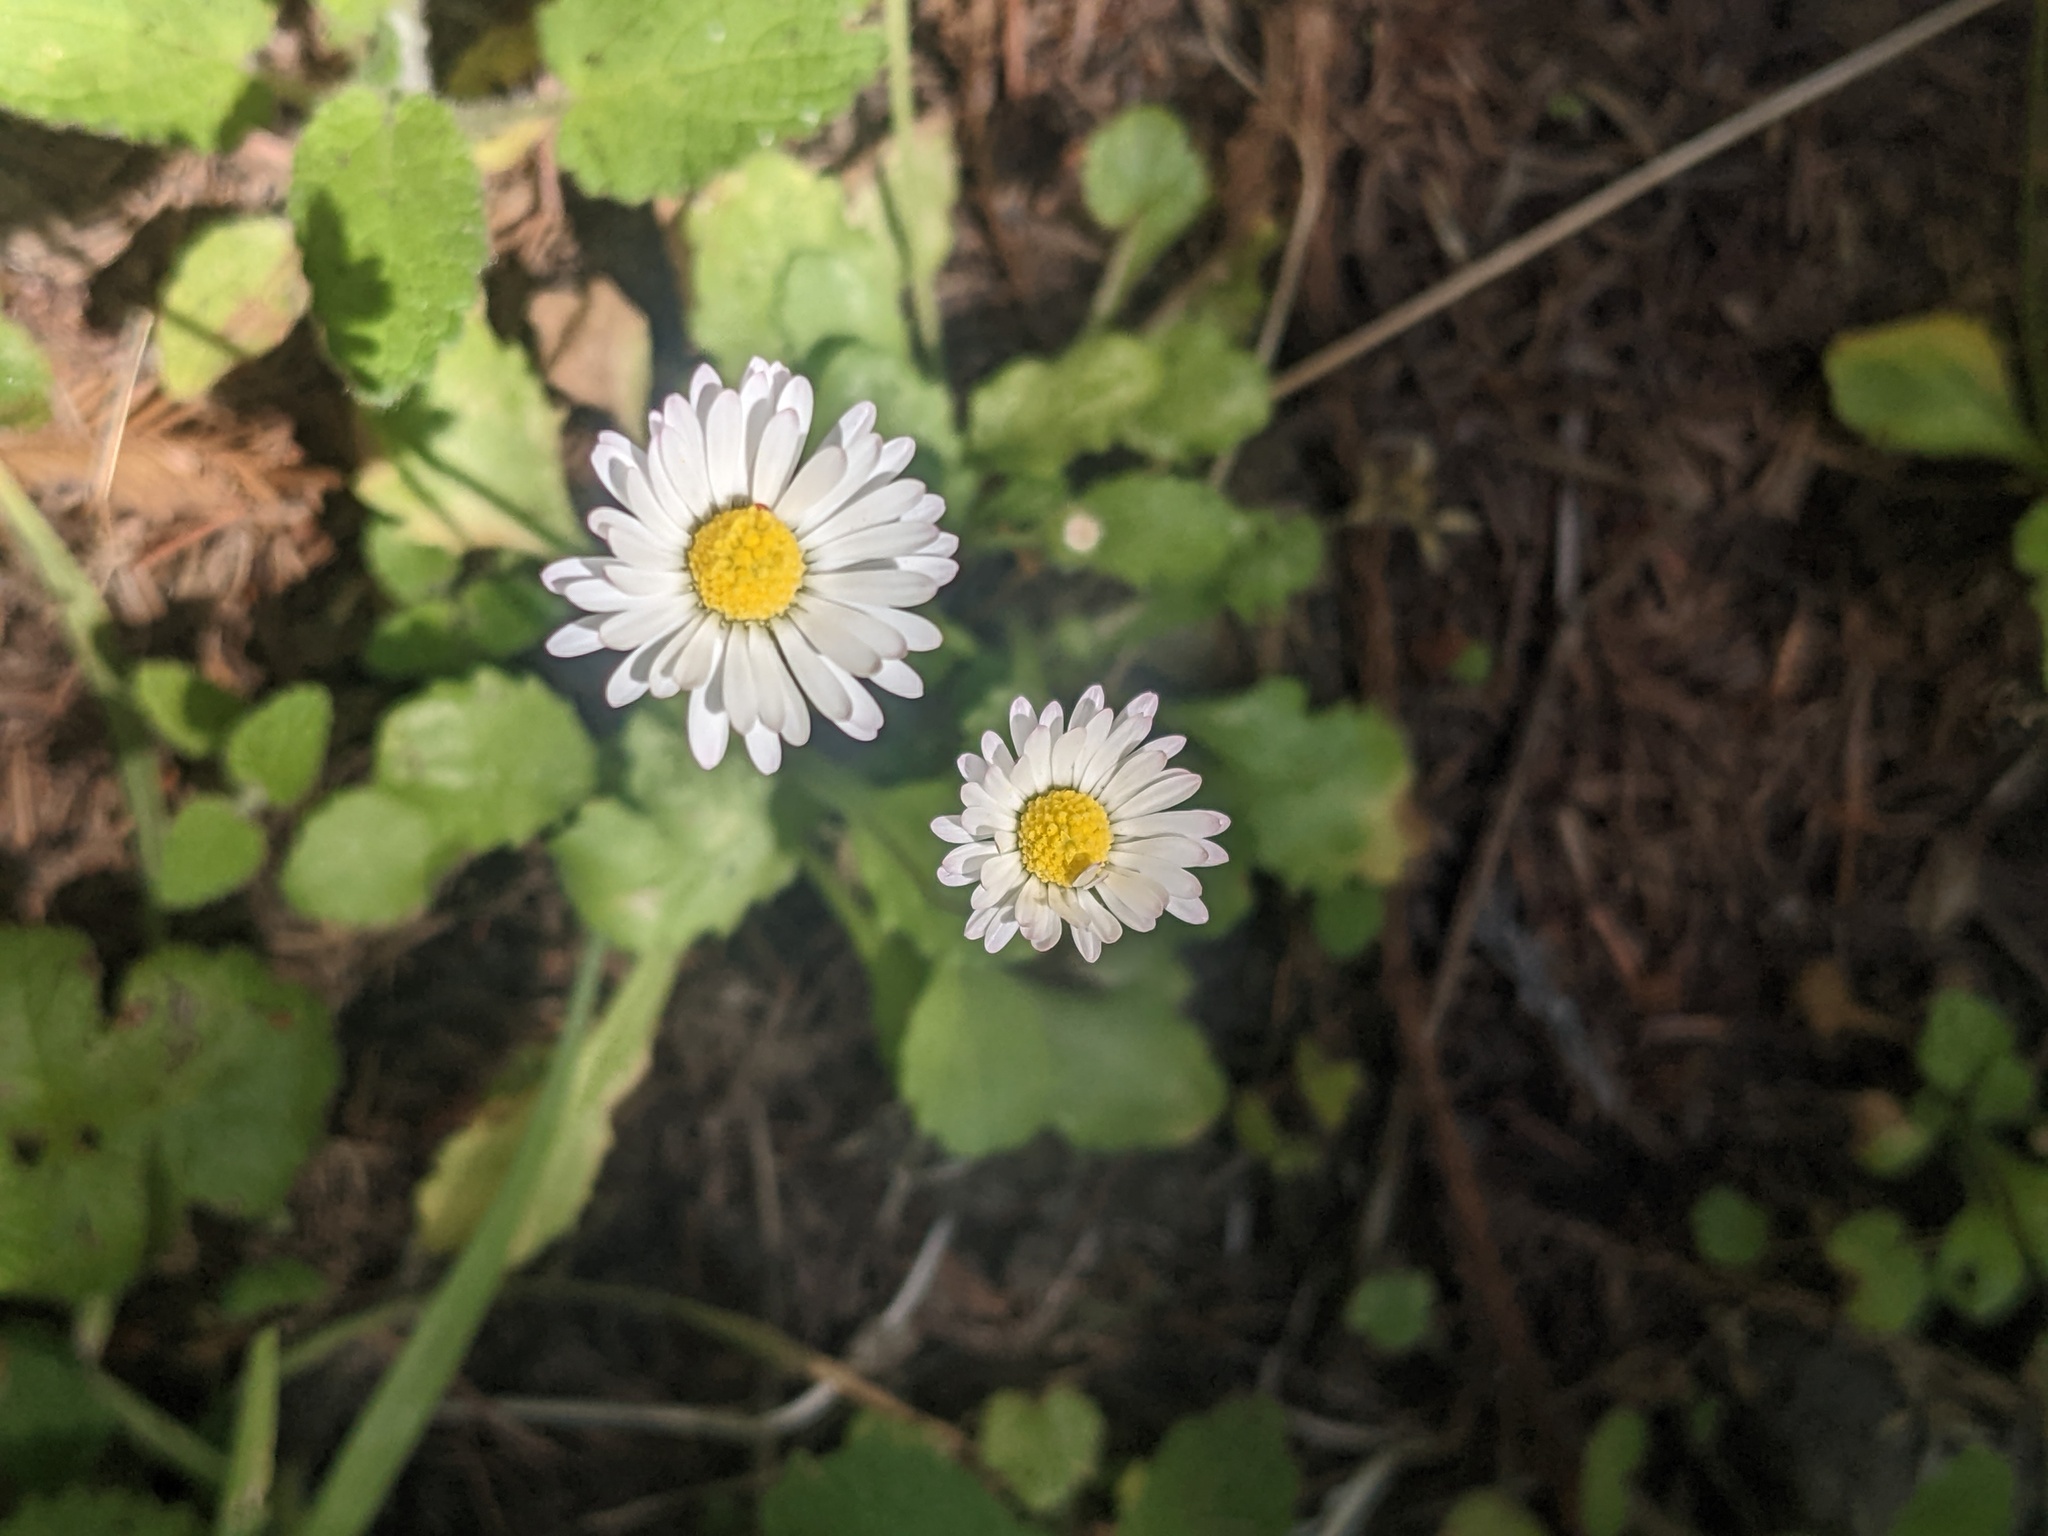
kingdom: Plantae
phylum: Tracheophyta
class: Magnoliopsida
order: Asterales
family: Asteraceae
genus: Bellis
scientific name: Bellis perennis
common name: Lawndaisy
